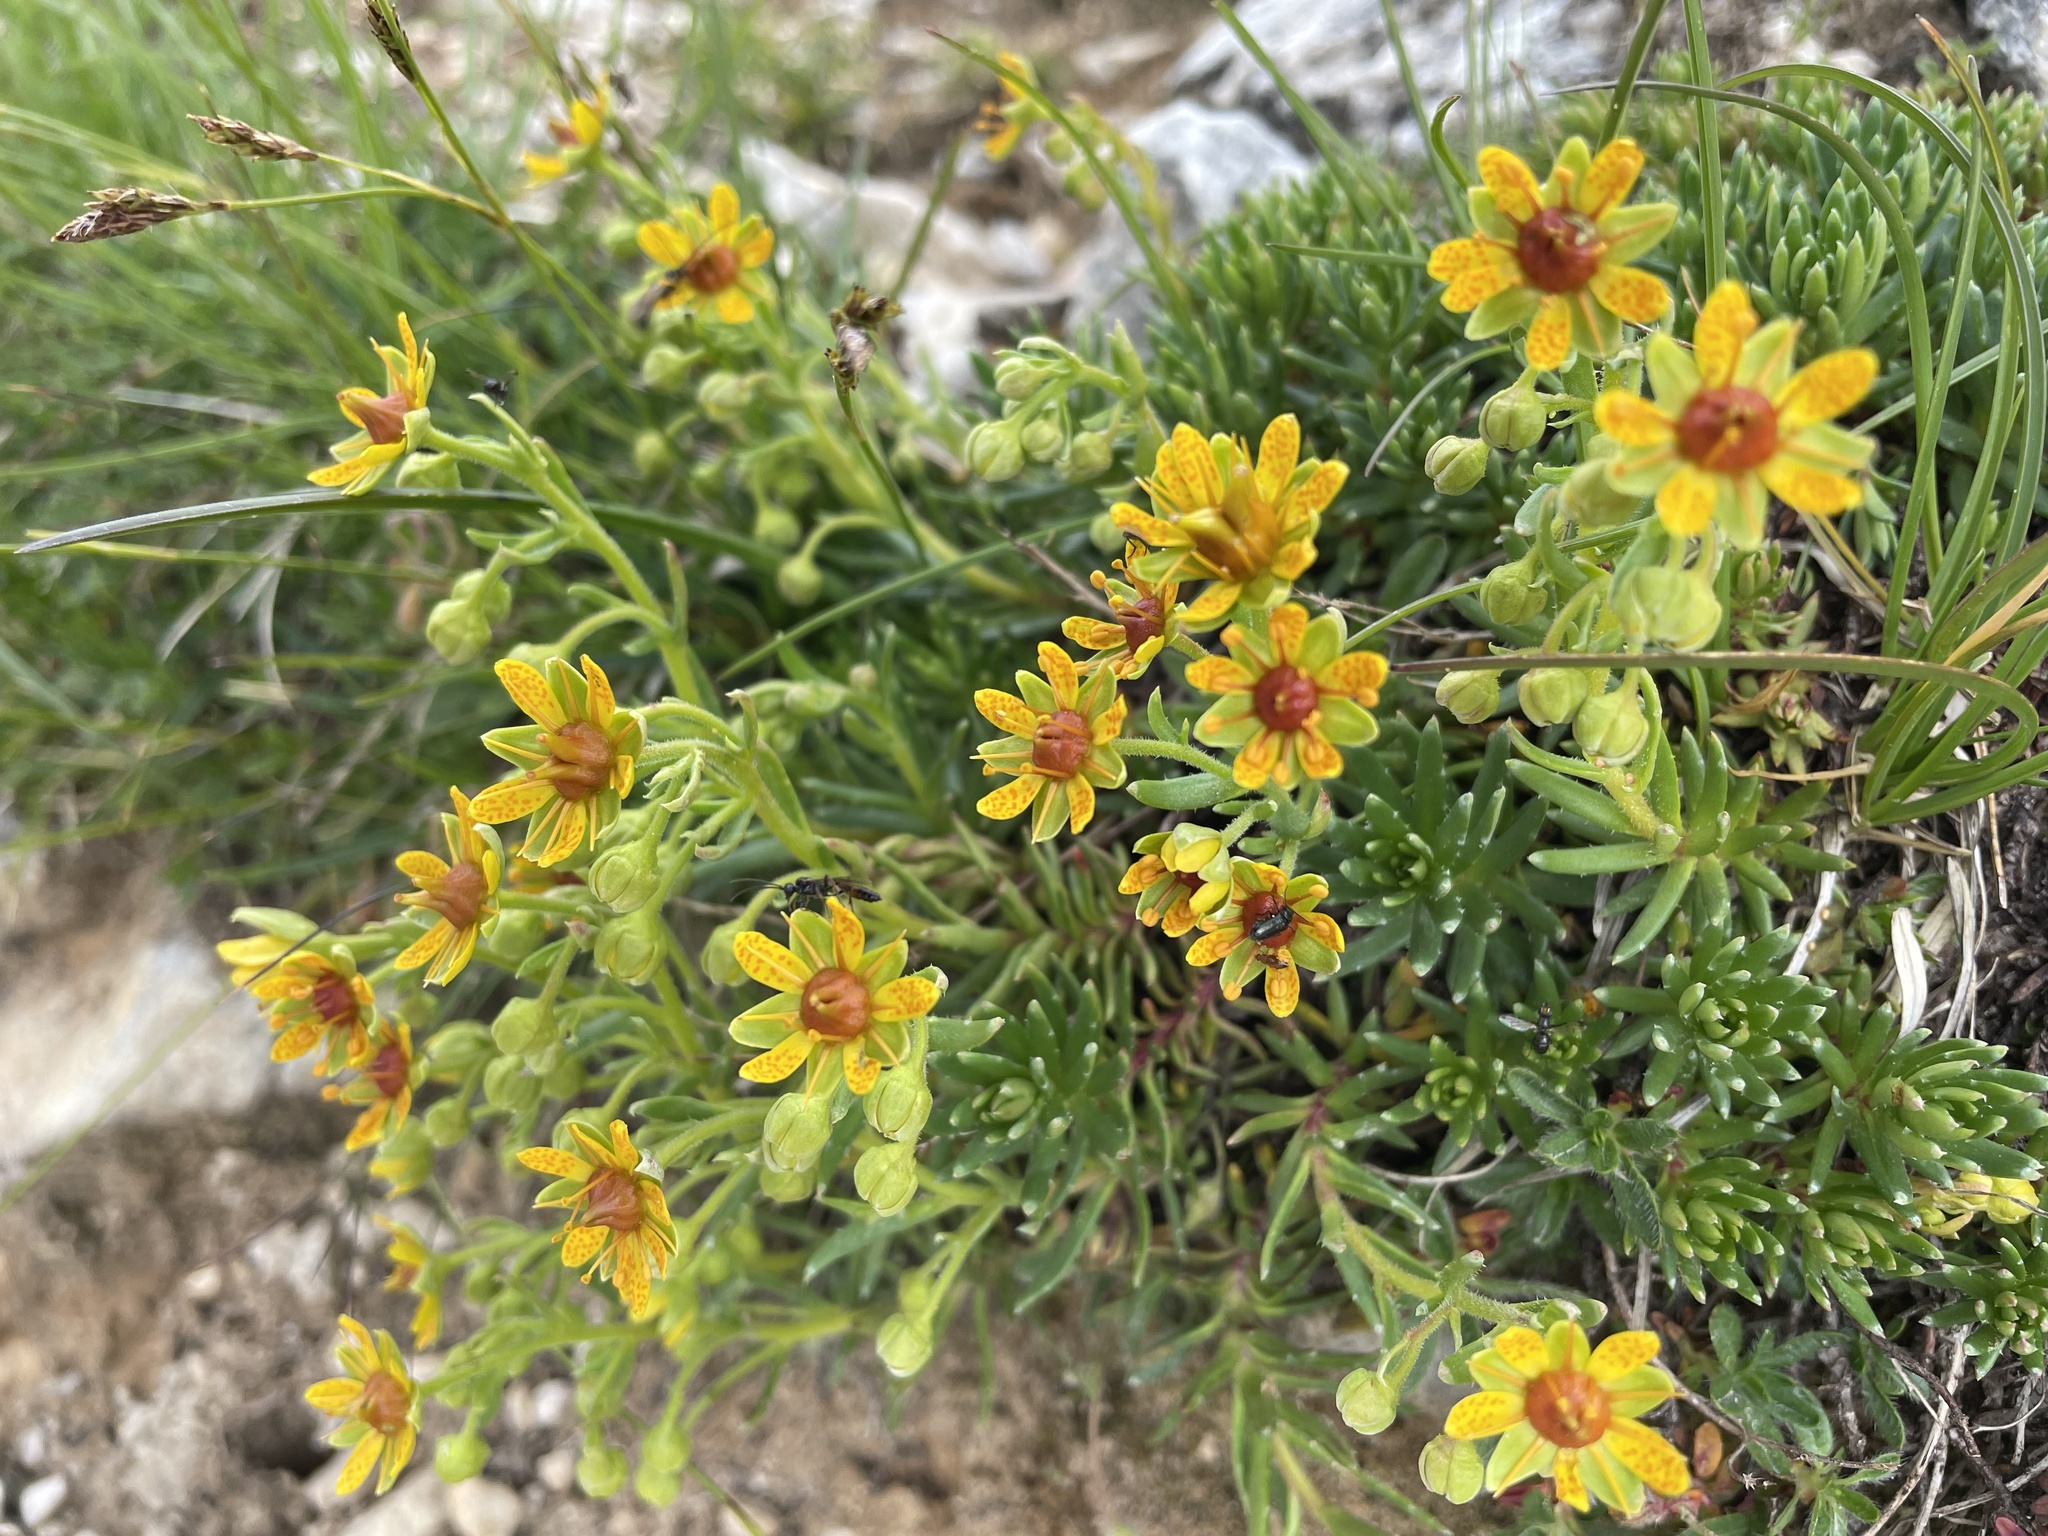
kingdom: Plantae
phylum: Tracheophyta
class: Magnoliopsida
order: Saxifragales
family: Saxifragaceae
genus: Saxifraga
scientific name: Saxifraga aizoides
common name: Yellow mountain saxifrage
